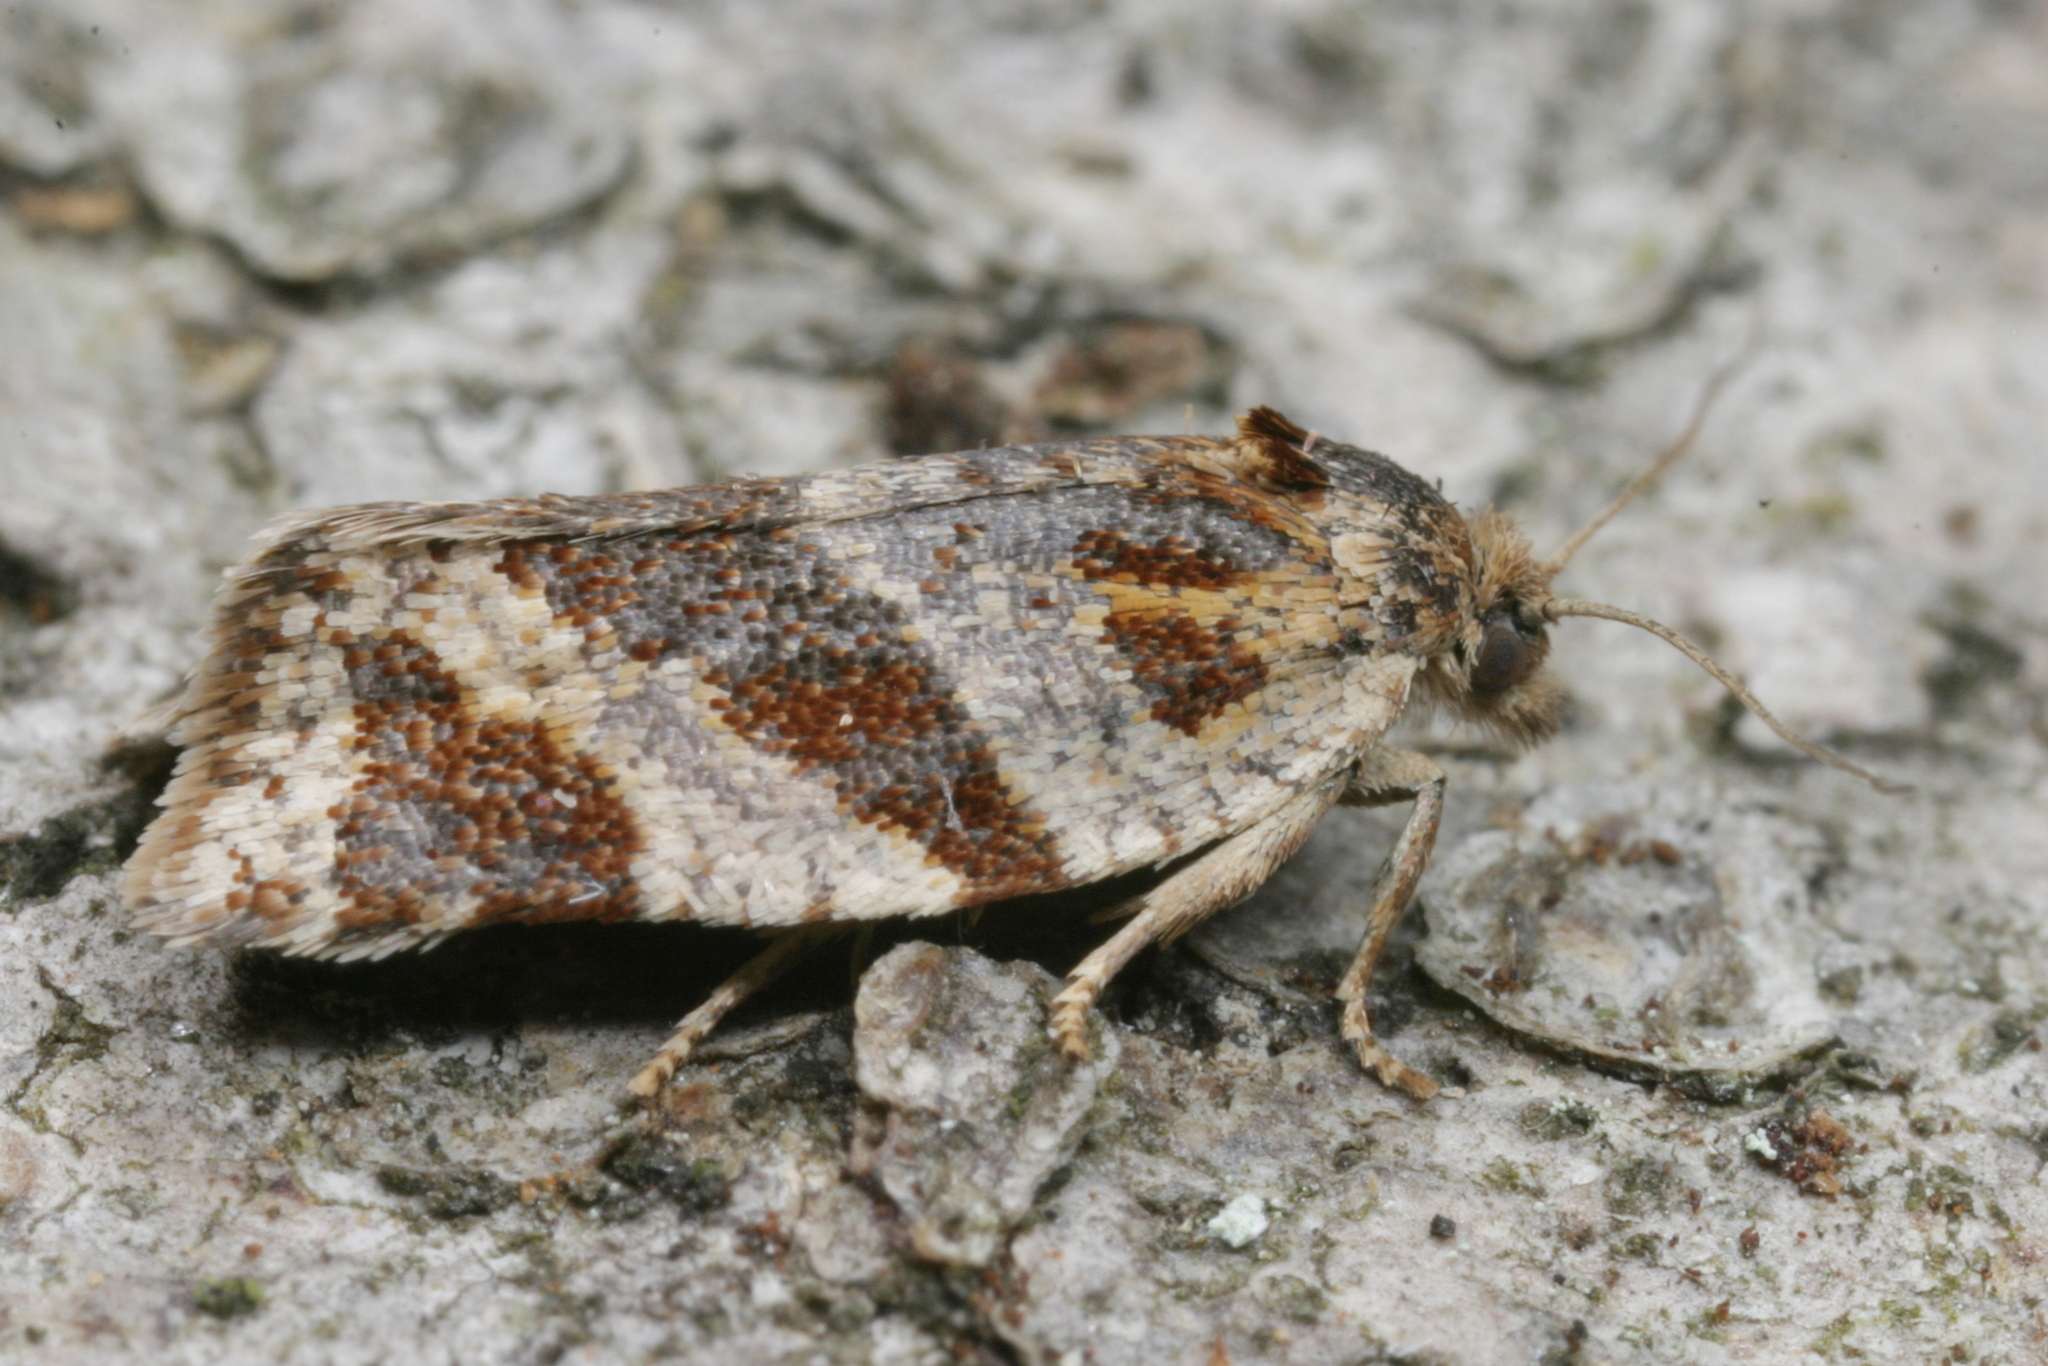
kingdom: Animalia
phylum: Arthropoda
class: Insecta
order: Lepidoptera
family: Tortricidae
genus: Argyrotaenia
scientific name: Argyrotaenia ljungiana
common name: Heather twist
